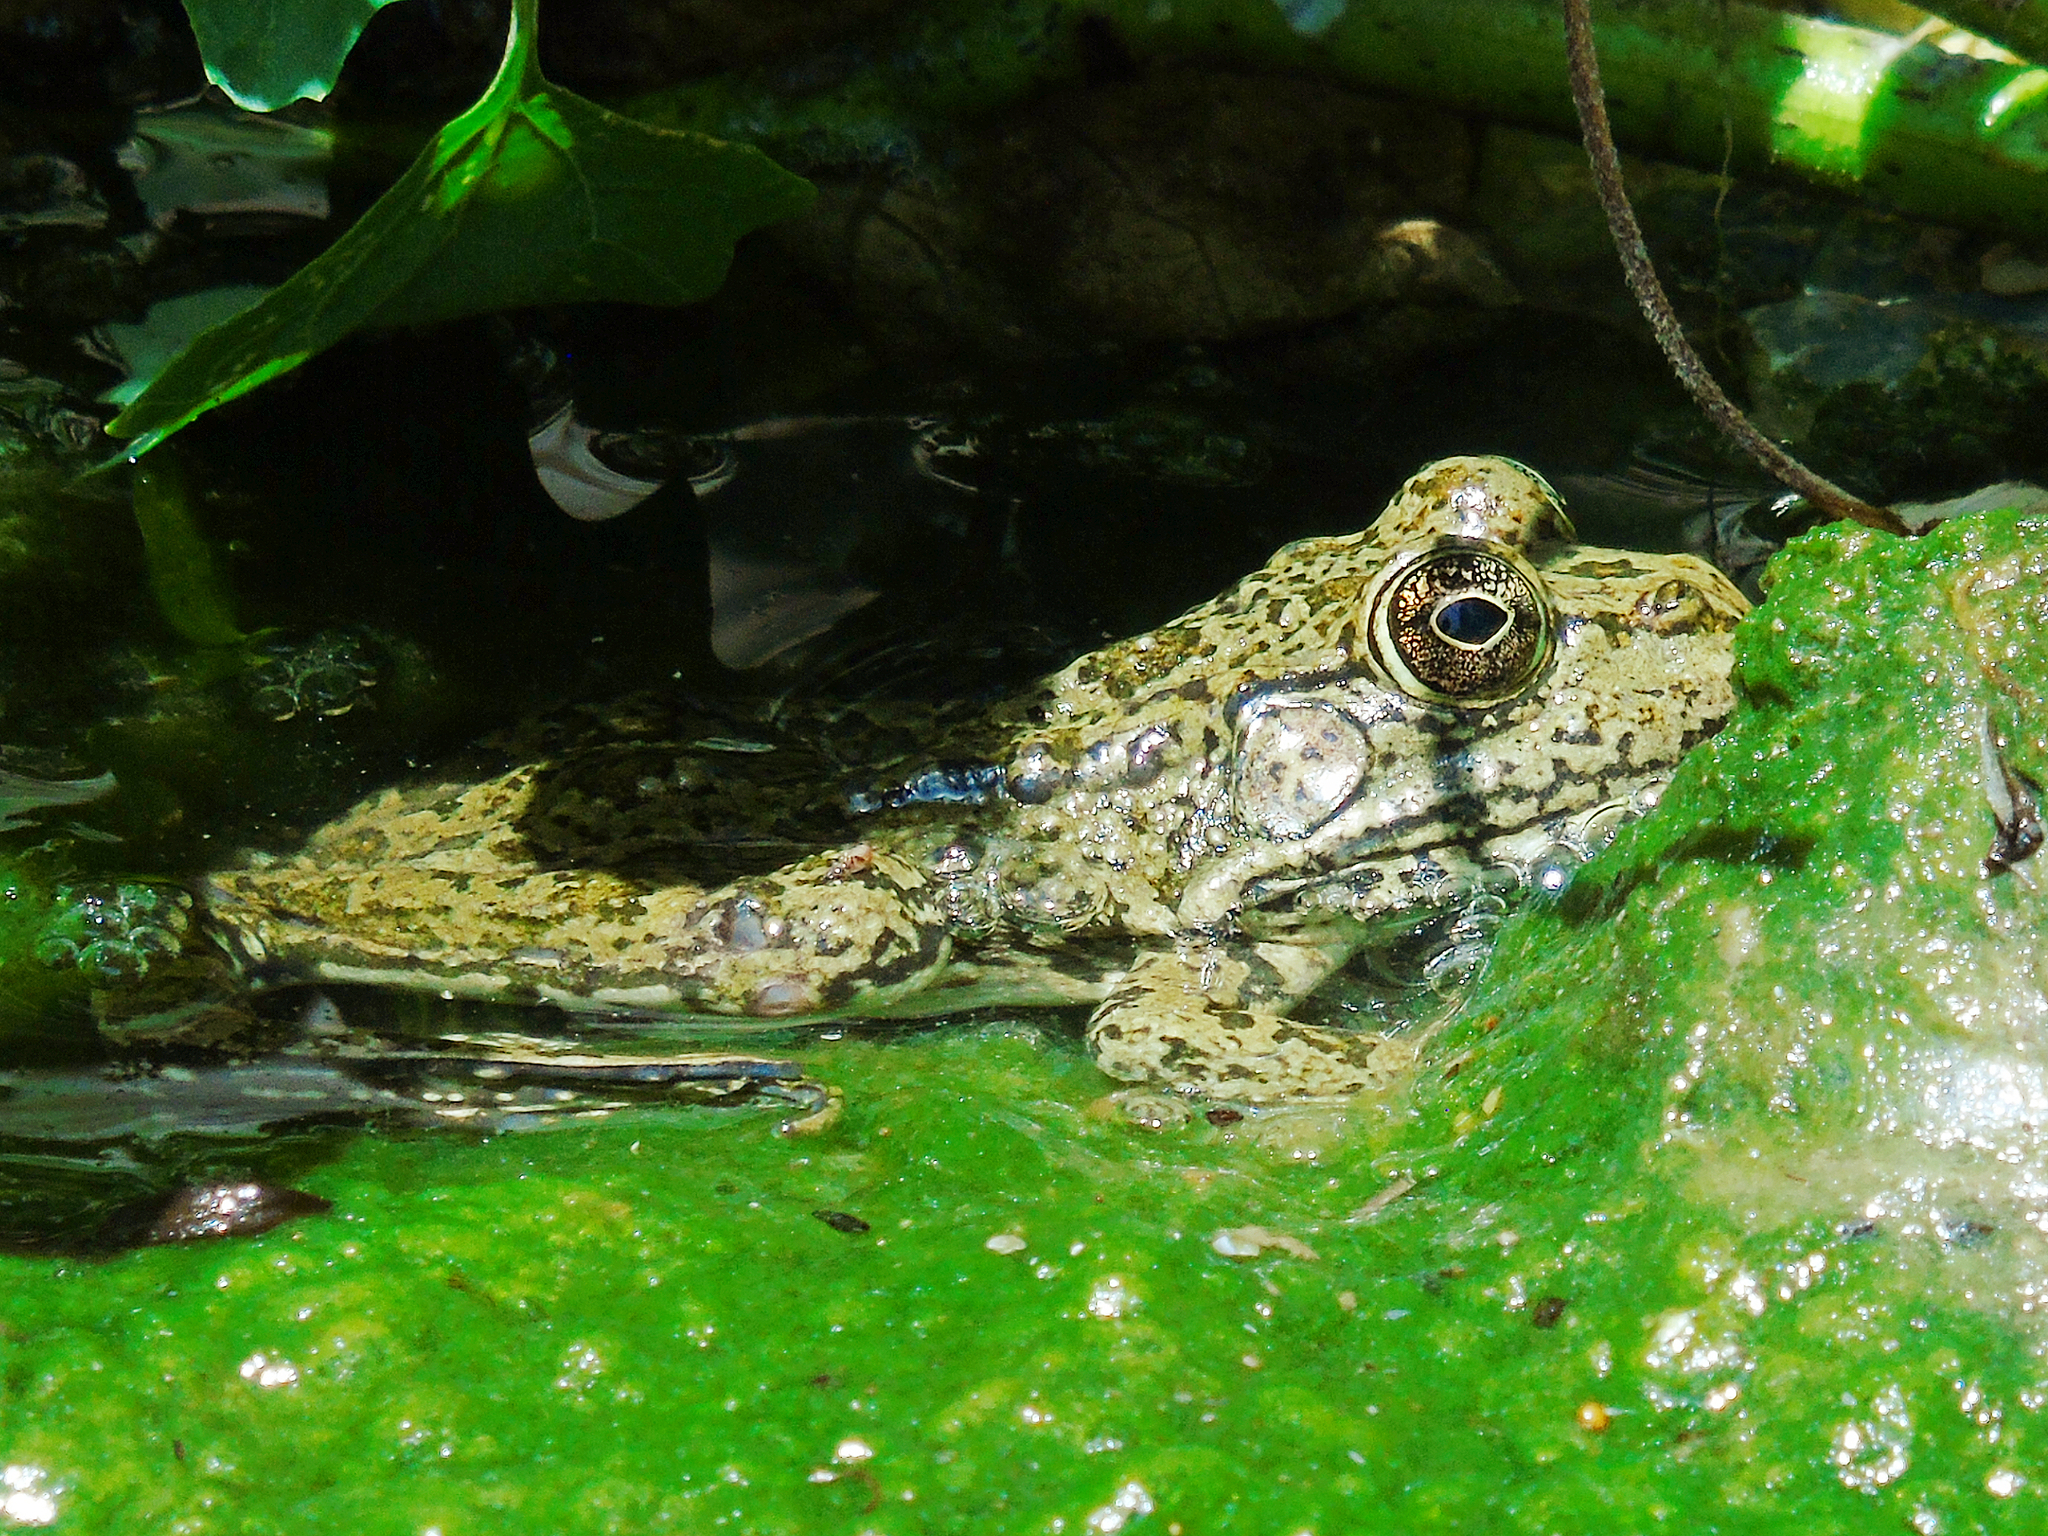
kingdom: Animalia
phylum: Chordata
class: Amphibia
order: Anura
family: Ranidae
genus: Pelophylax
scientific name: Pelophylax ridibundus
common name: Marsh frog
